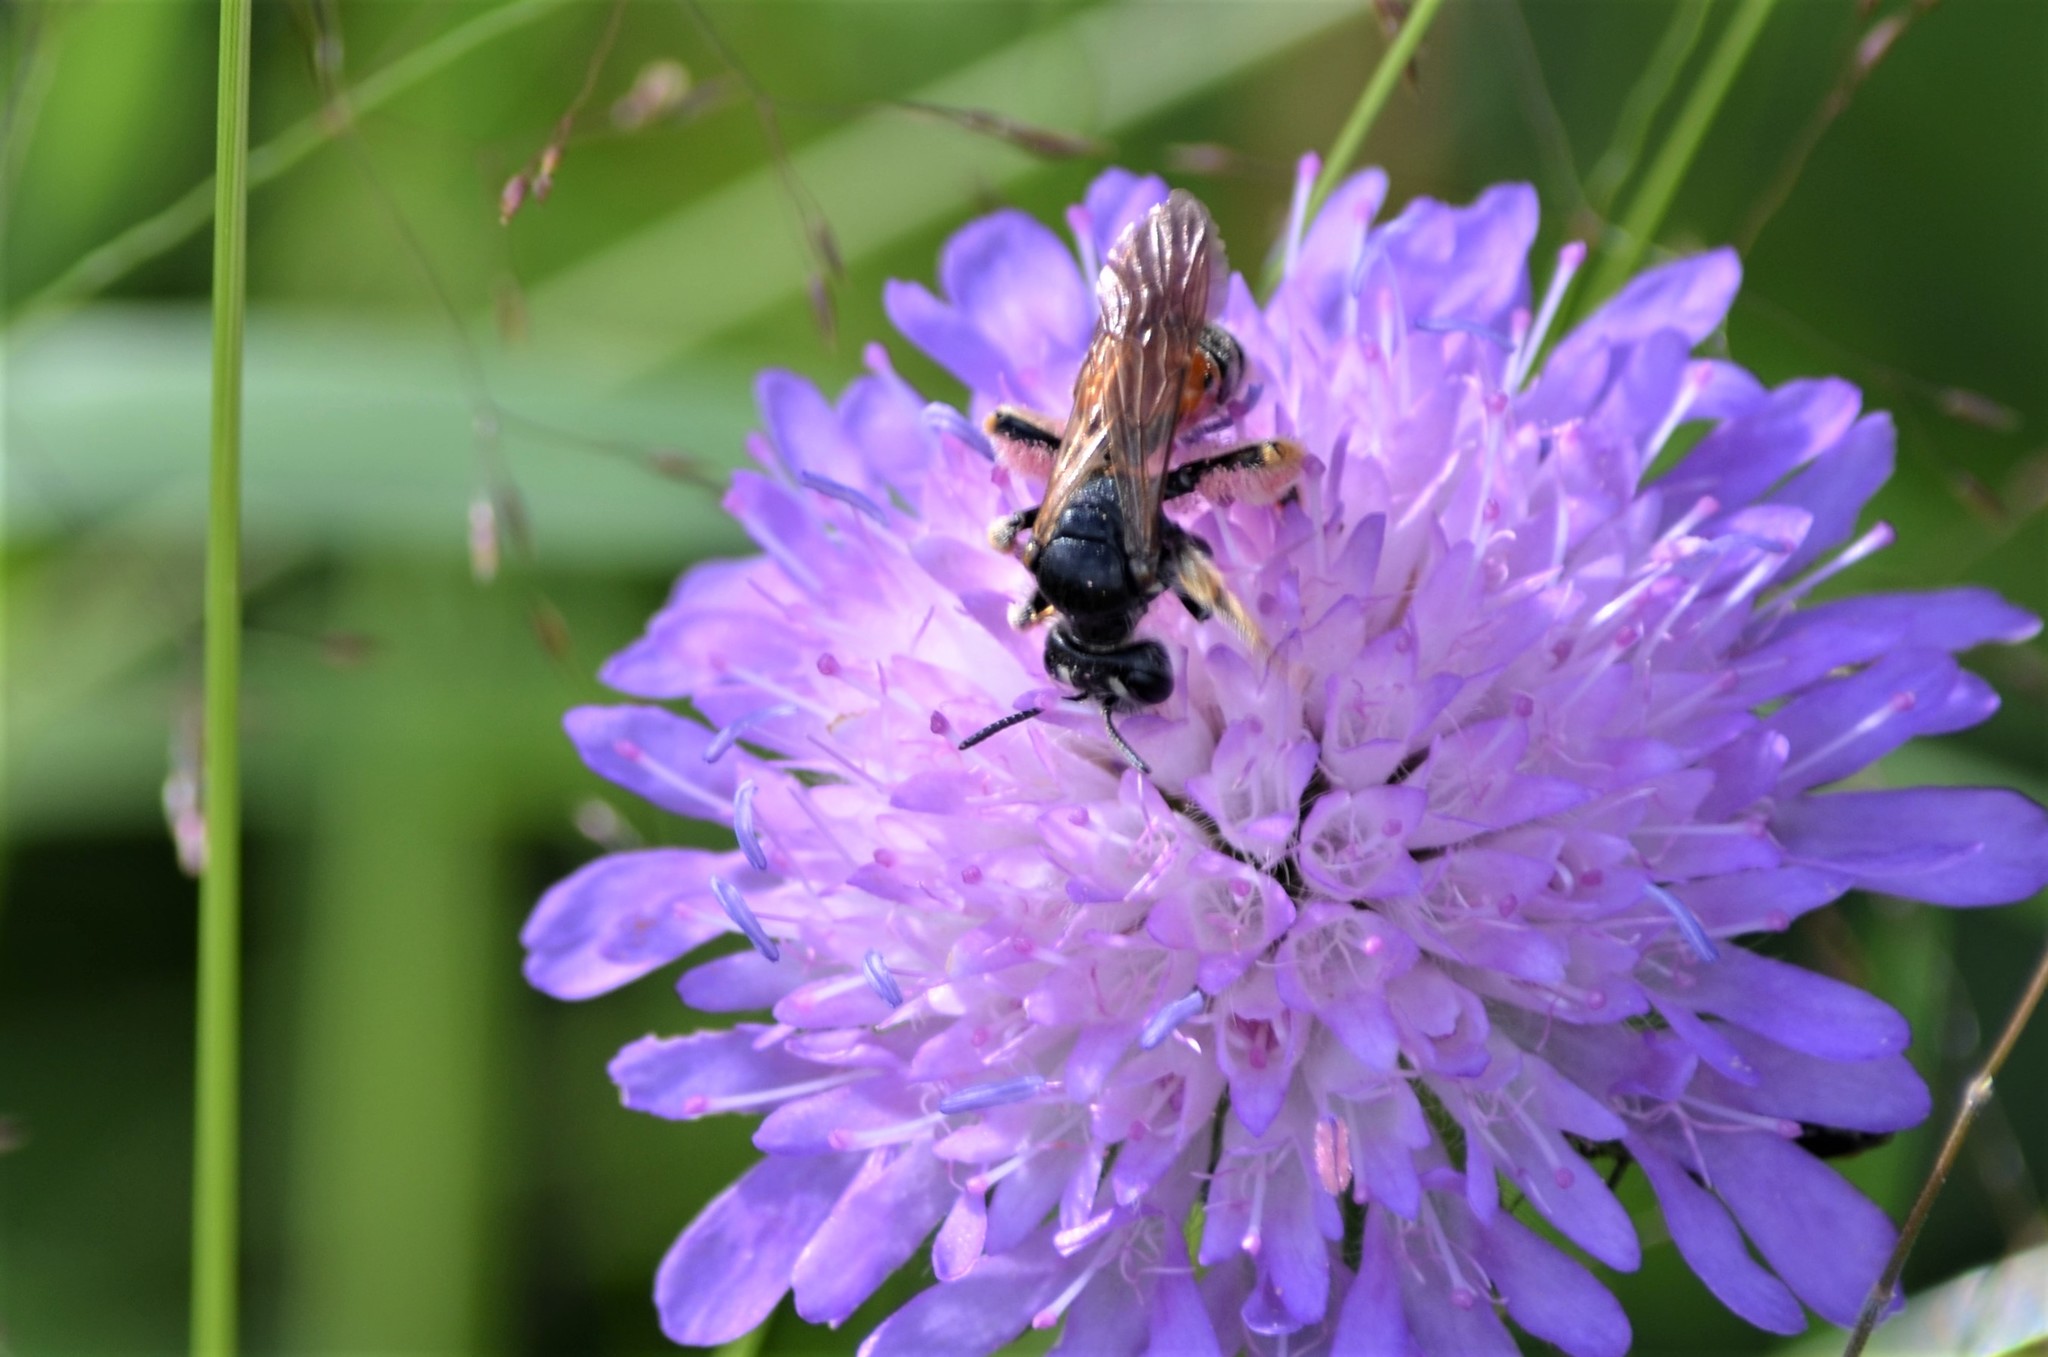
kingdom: Animalia
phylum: Arthropoda
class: Insecta
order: Hymenoptera
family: Andrenidae
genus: Andrena
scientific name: Andrena hattorfiana
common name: Large scabious mining bee
